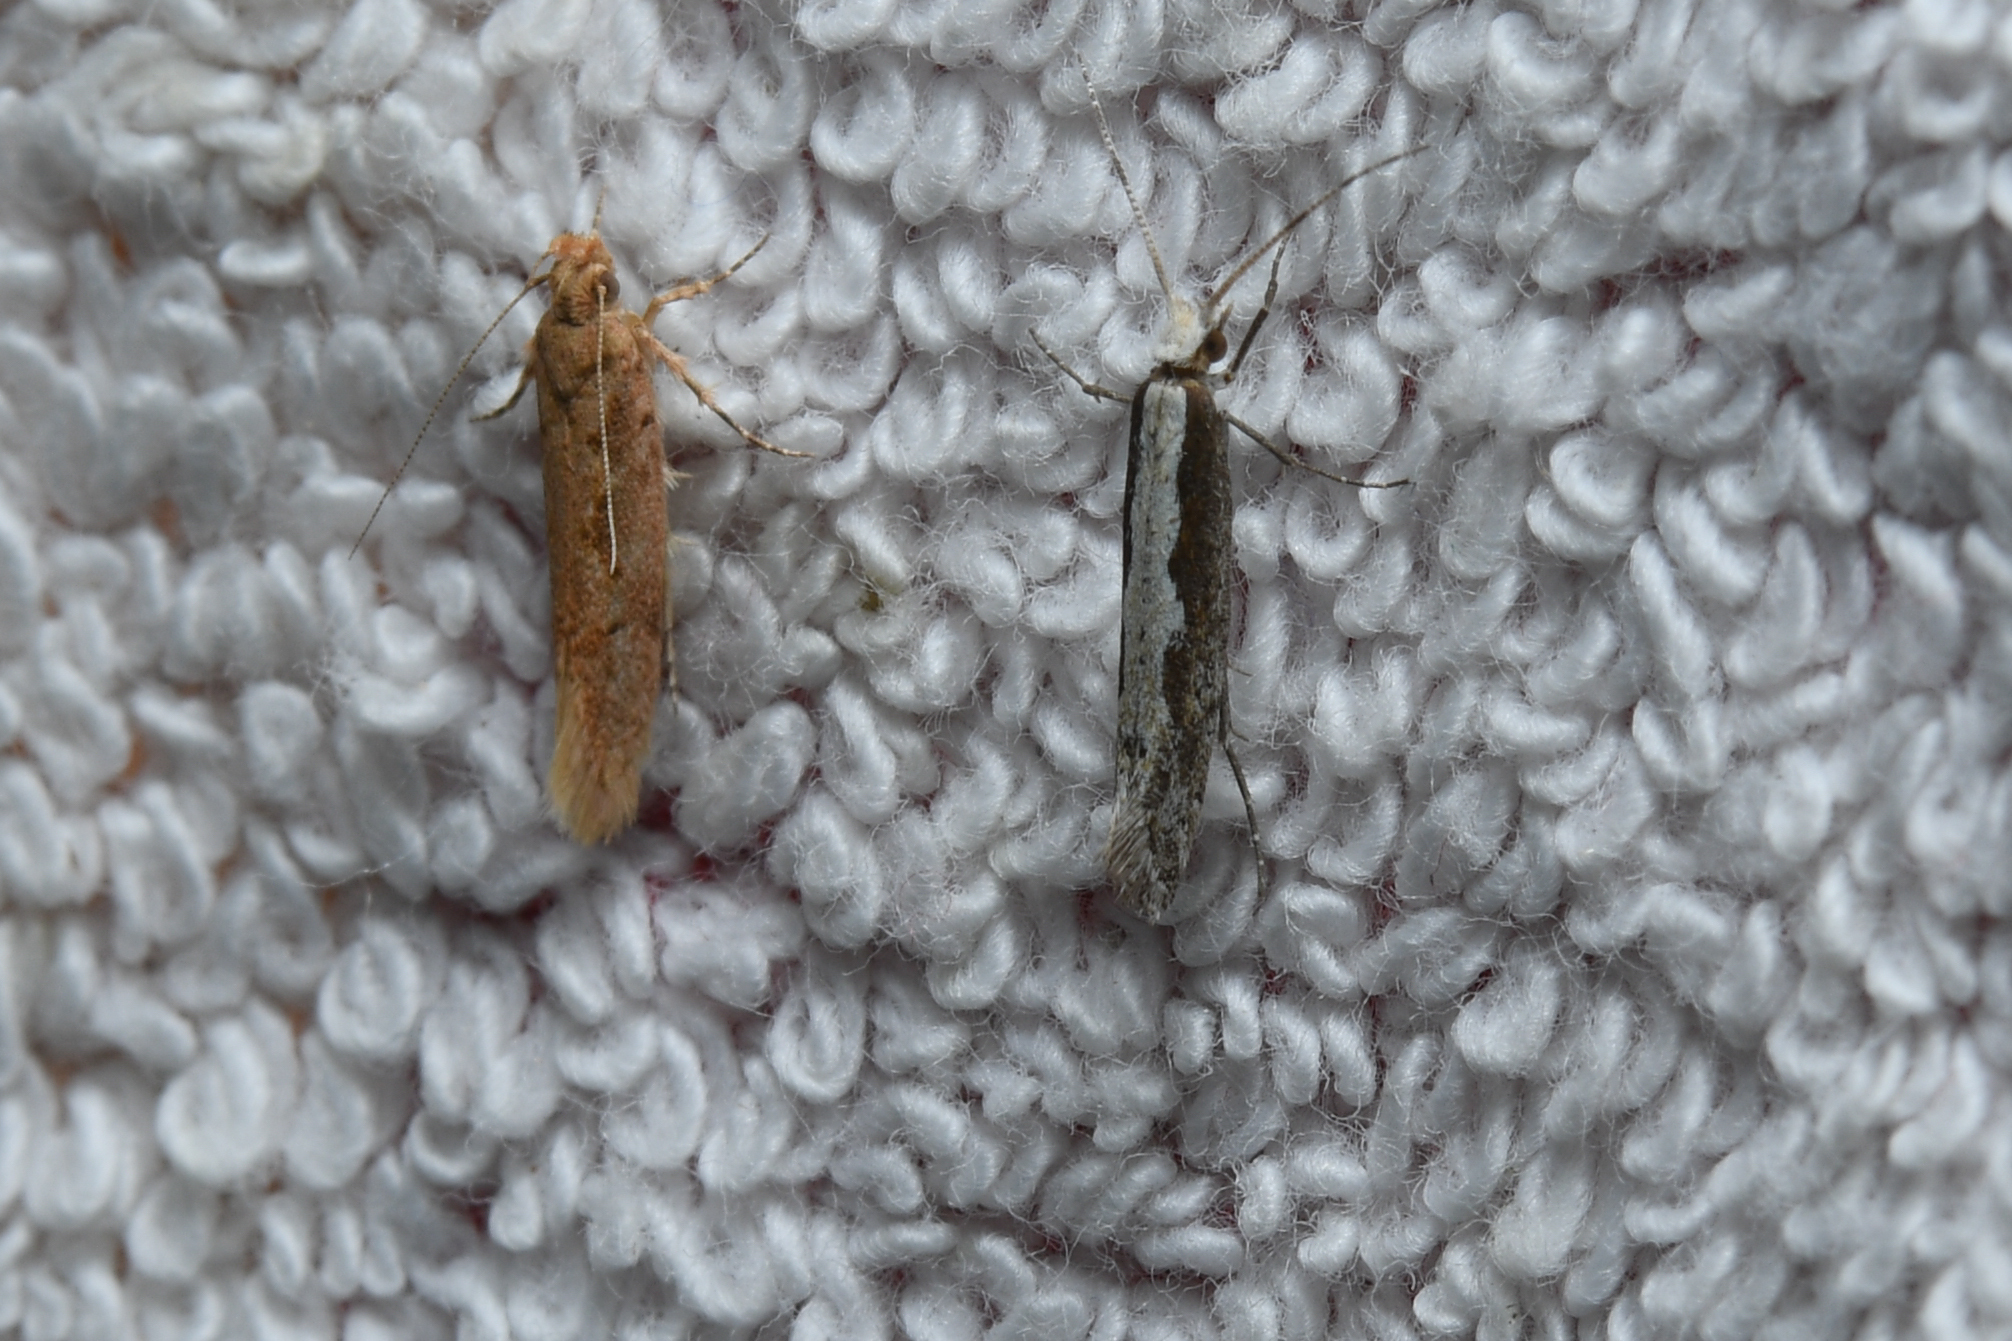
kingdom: Animalia
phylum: Arthropoda
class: Insecta
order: Lepidoptera
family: Plutellidae
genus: Plutella
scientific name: Plutella xylostella
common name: Diamond-back moth
